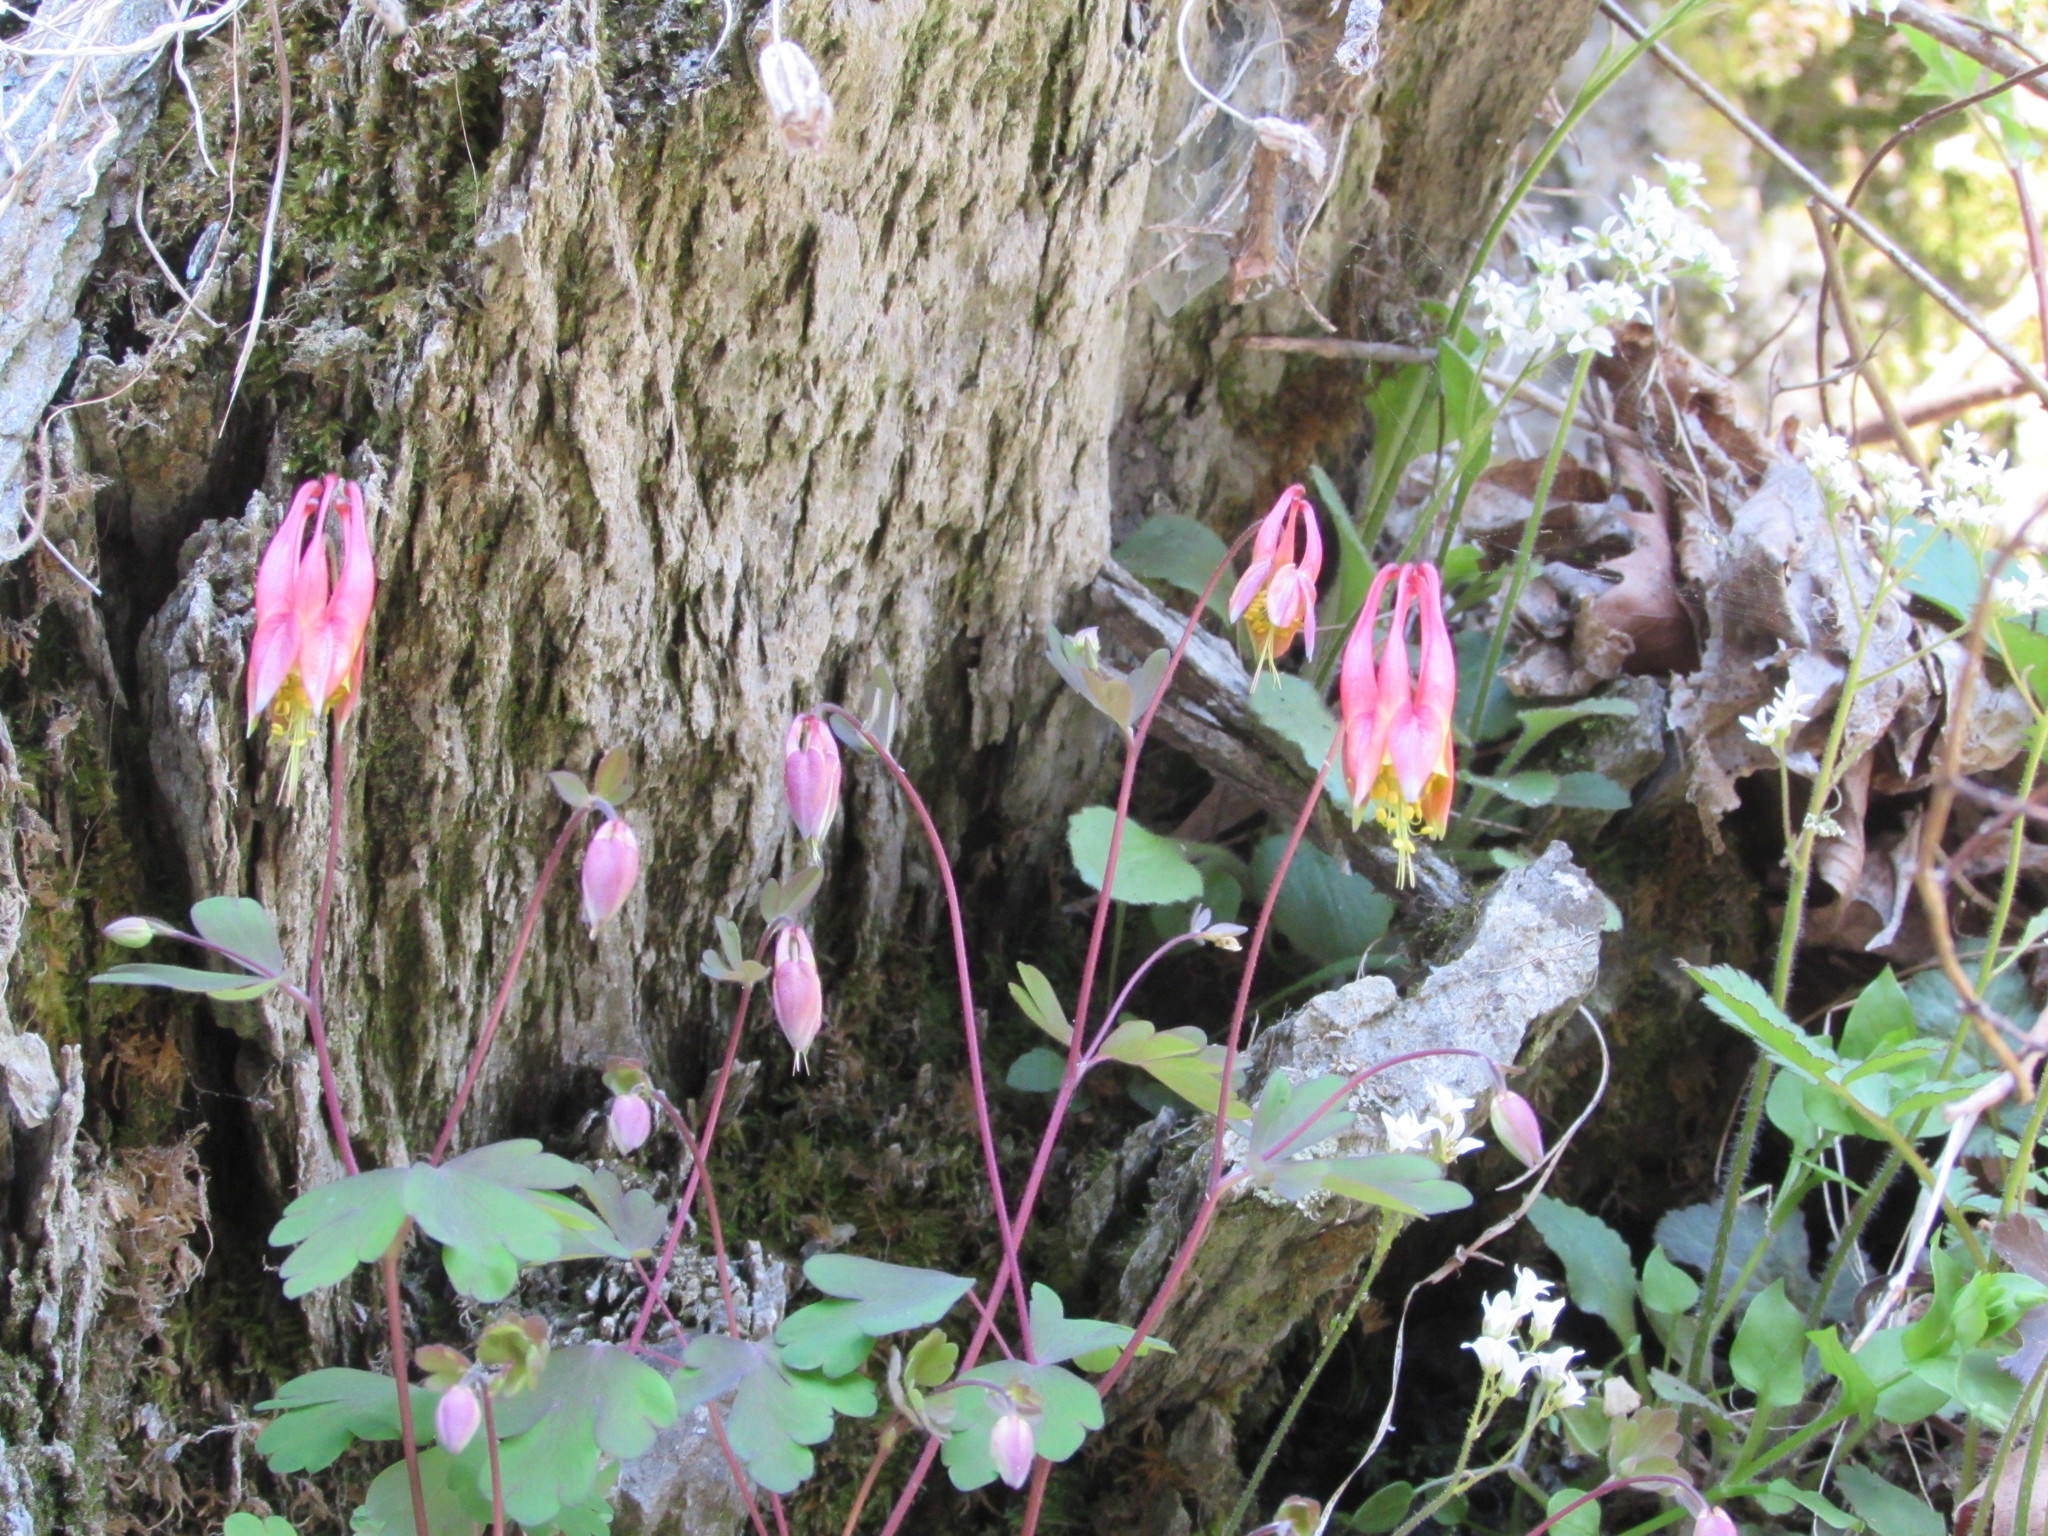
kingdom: Plantae
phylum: Tracheophyta
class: Magnoliopsida
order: Ranunculales
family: Ranunculaceae
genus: Aquilegia
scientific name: Aquilegia canadensis
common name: American columbine
